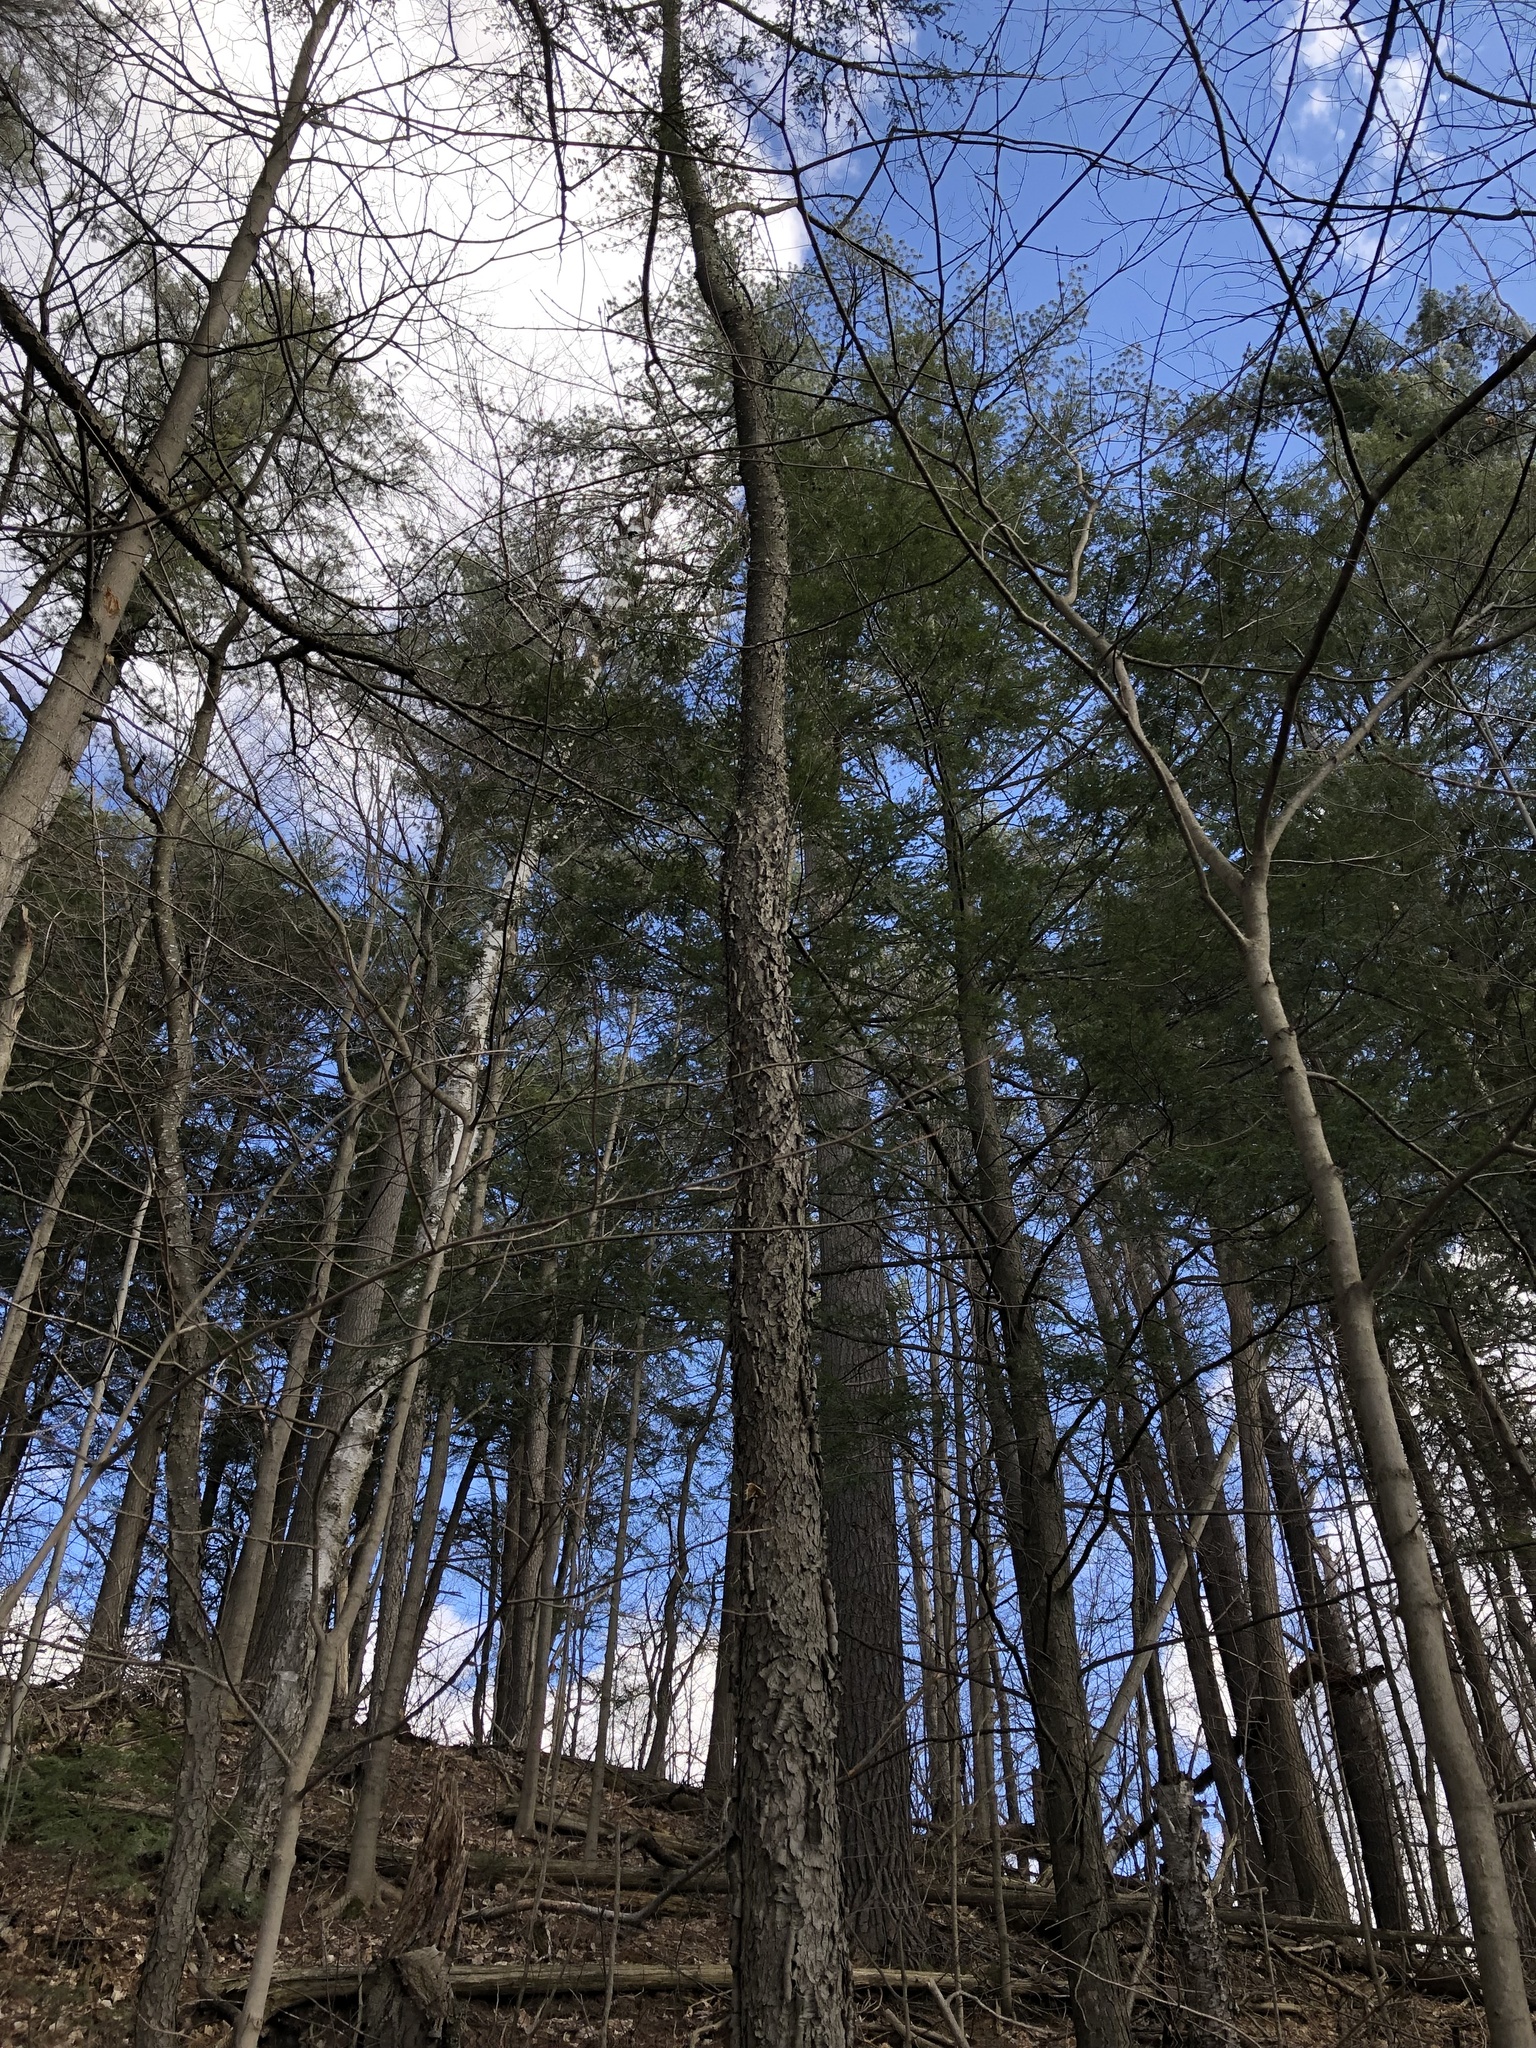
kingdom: Plantae
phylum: Tracheophyta
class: Magnoliopsida
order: Rosales
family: Rosaceae
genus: Prunus
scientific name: Prunus serotina
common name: Black cherry
